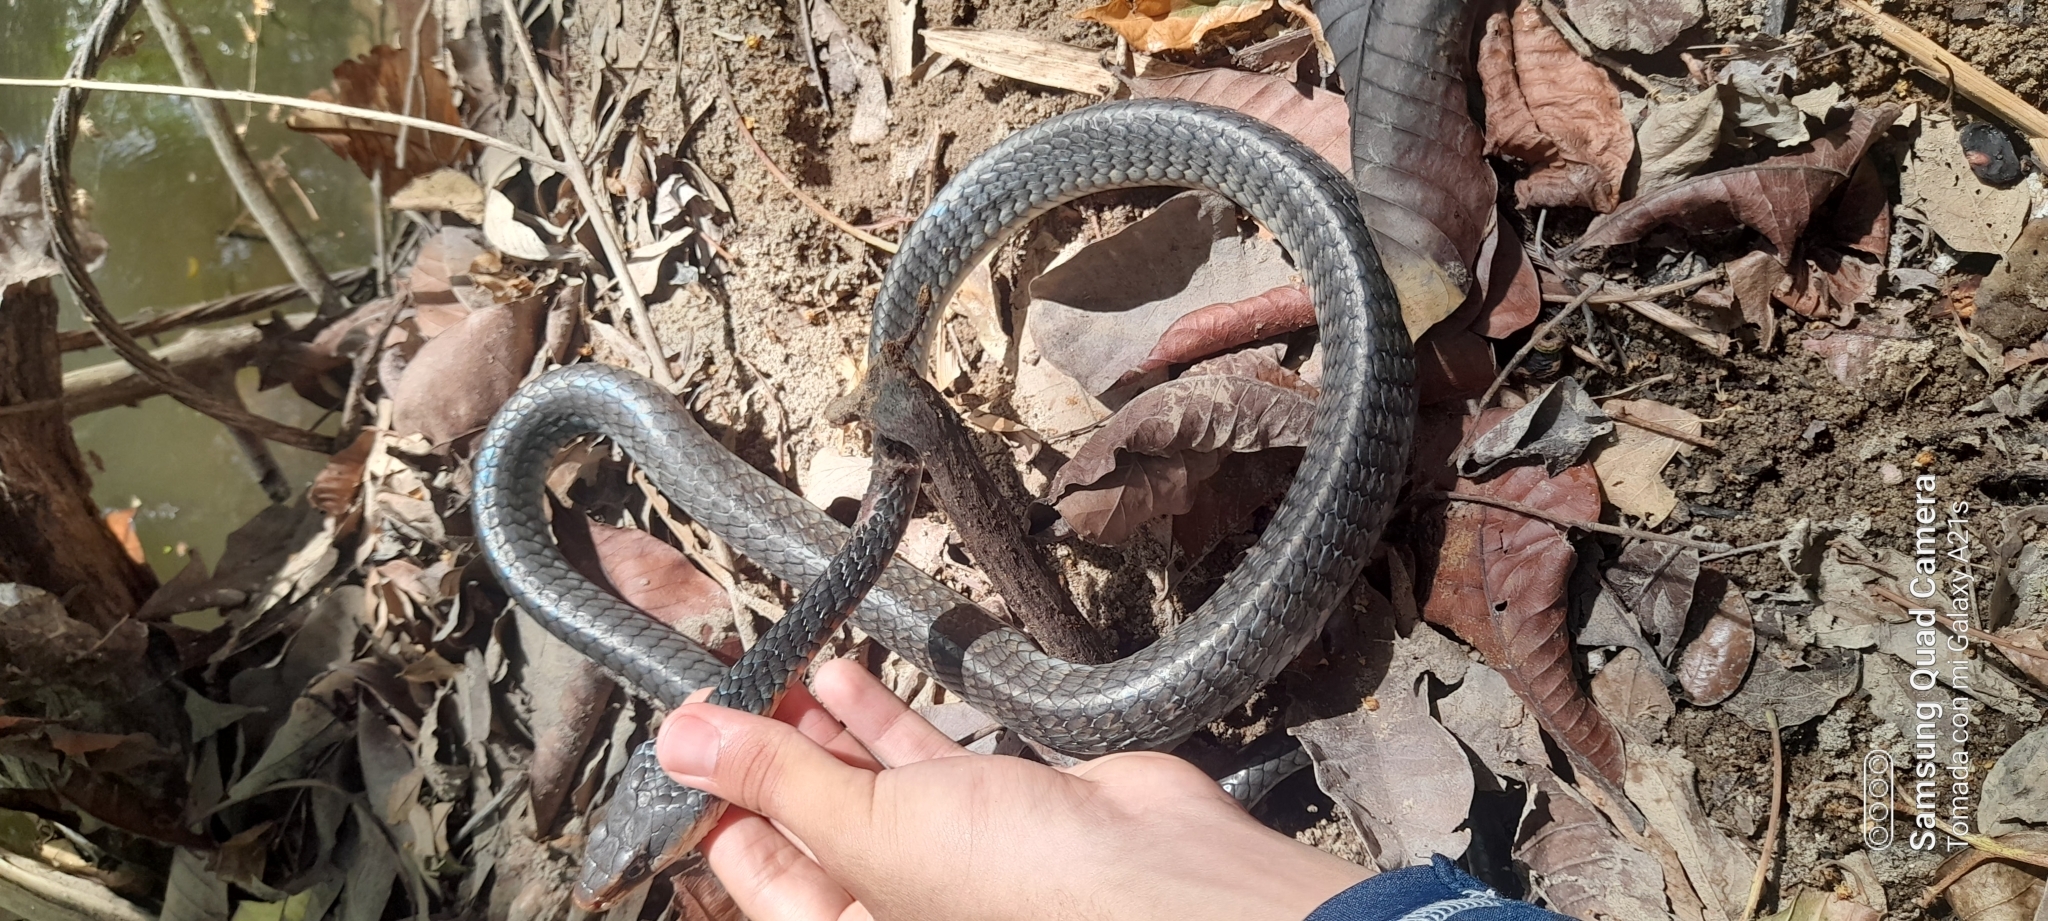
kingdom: Animalia
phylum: Chordata
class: Squamata
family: Colubridae
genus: Chironius
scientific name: Chironius grandisquamis
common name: Ecuador sipo
